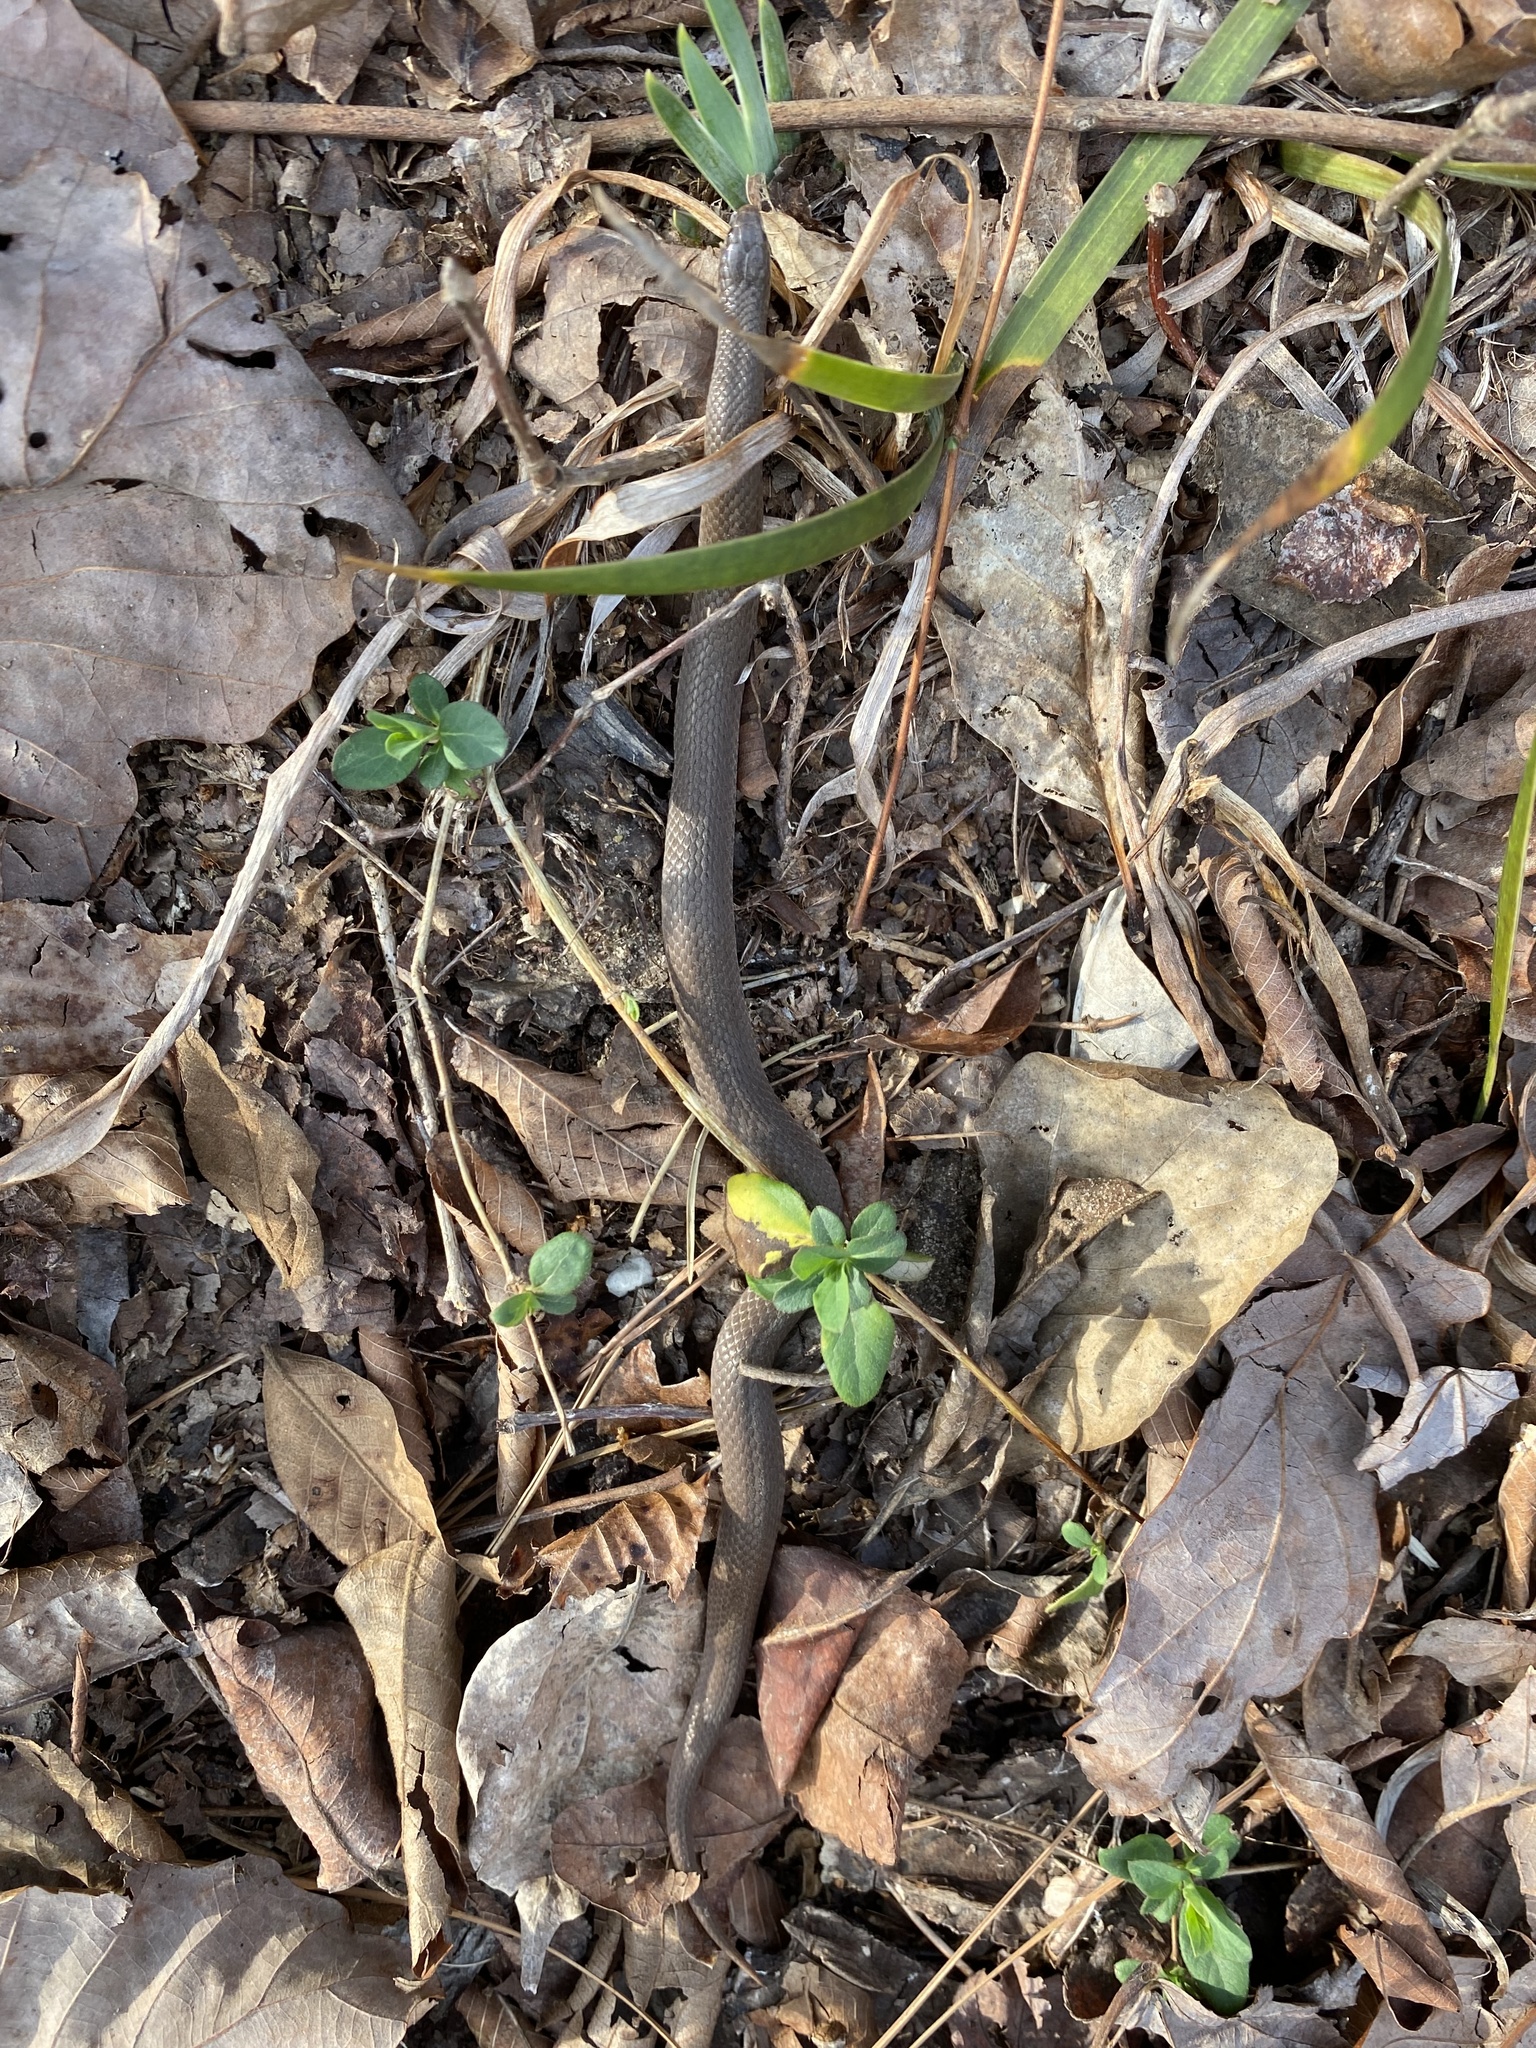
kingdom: Animalia
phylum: Chordata
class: Squamata
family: Colubridae
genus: Virginia
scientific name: Virginia valeriae
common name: Smooth earth snake
